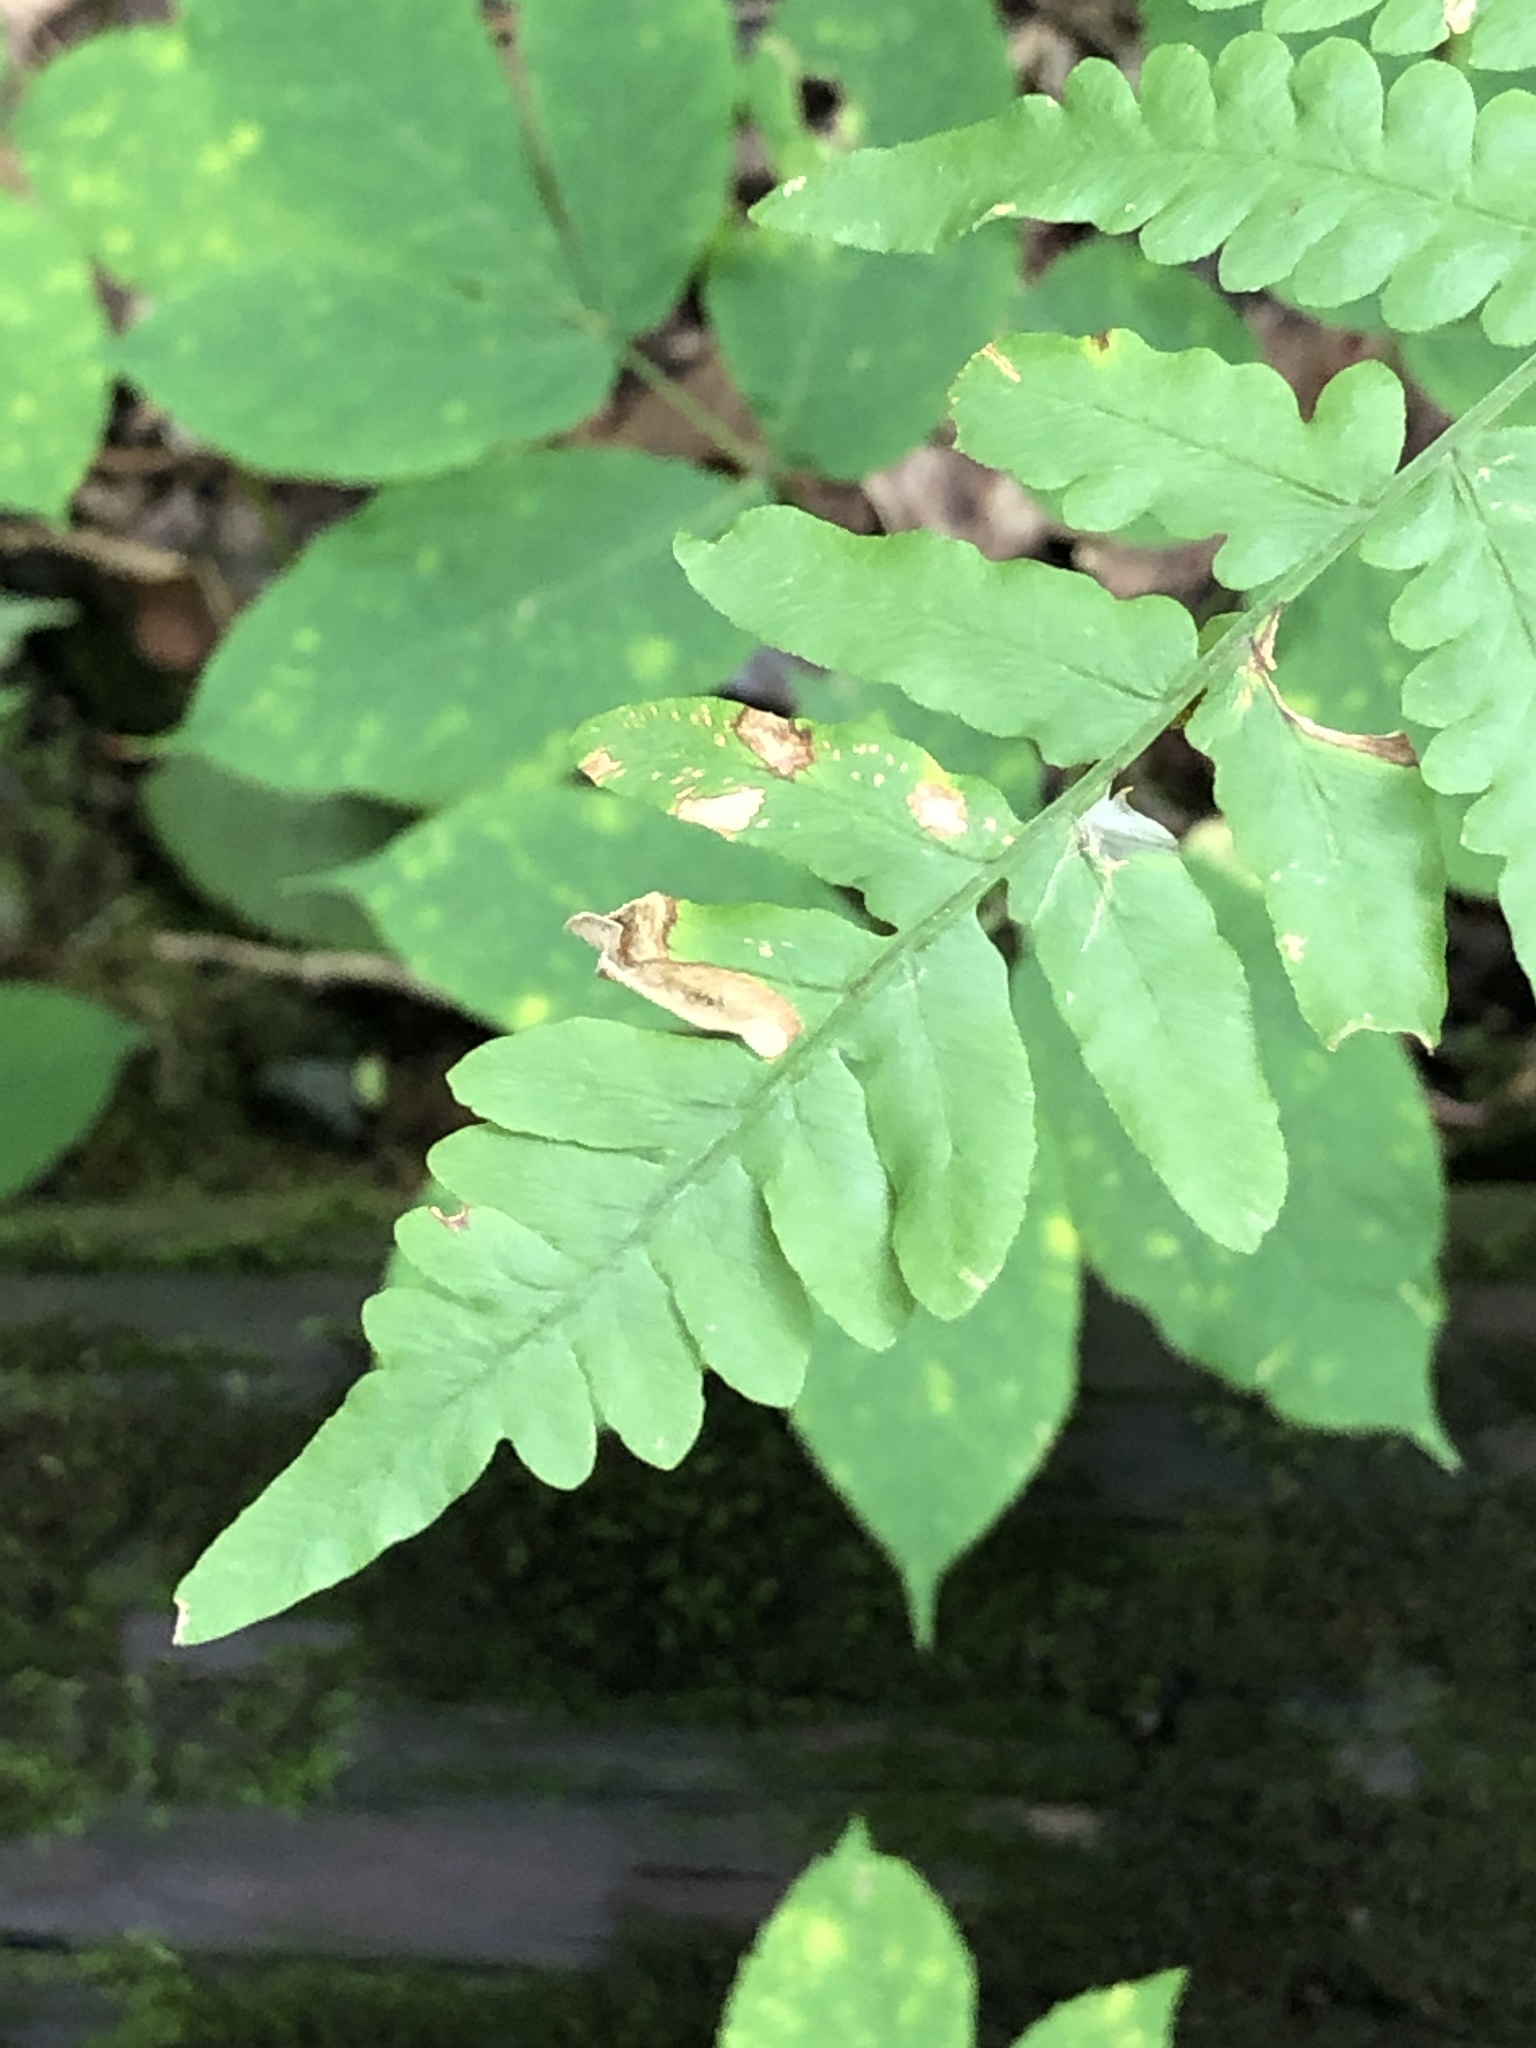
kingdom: Plantae
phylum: Tracheophyta
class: Polypodiopsida
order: Polypodiales
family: Dennstaedtiaceae
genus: Pteridium
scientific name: Pteridium aquilinum
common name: Bracken
